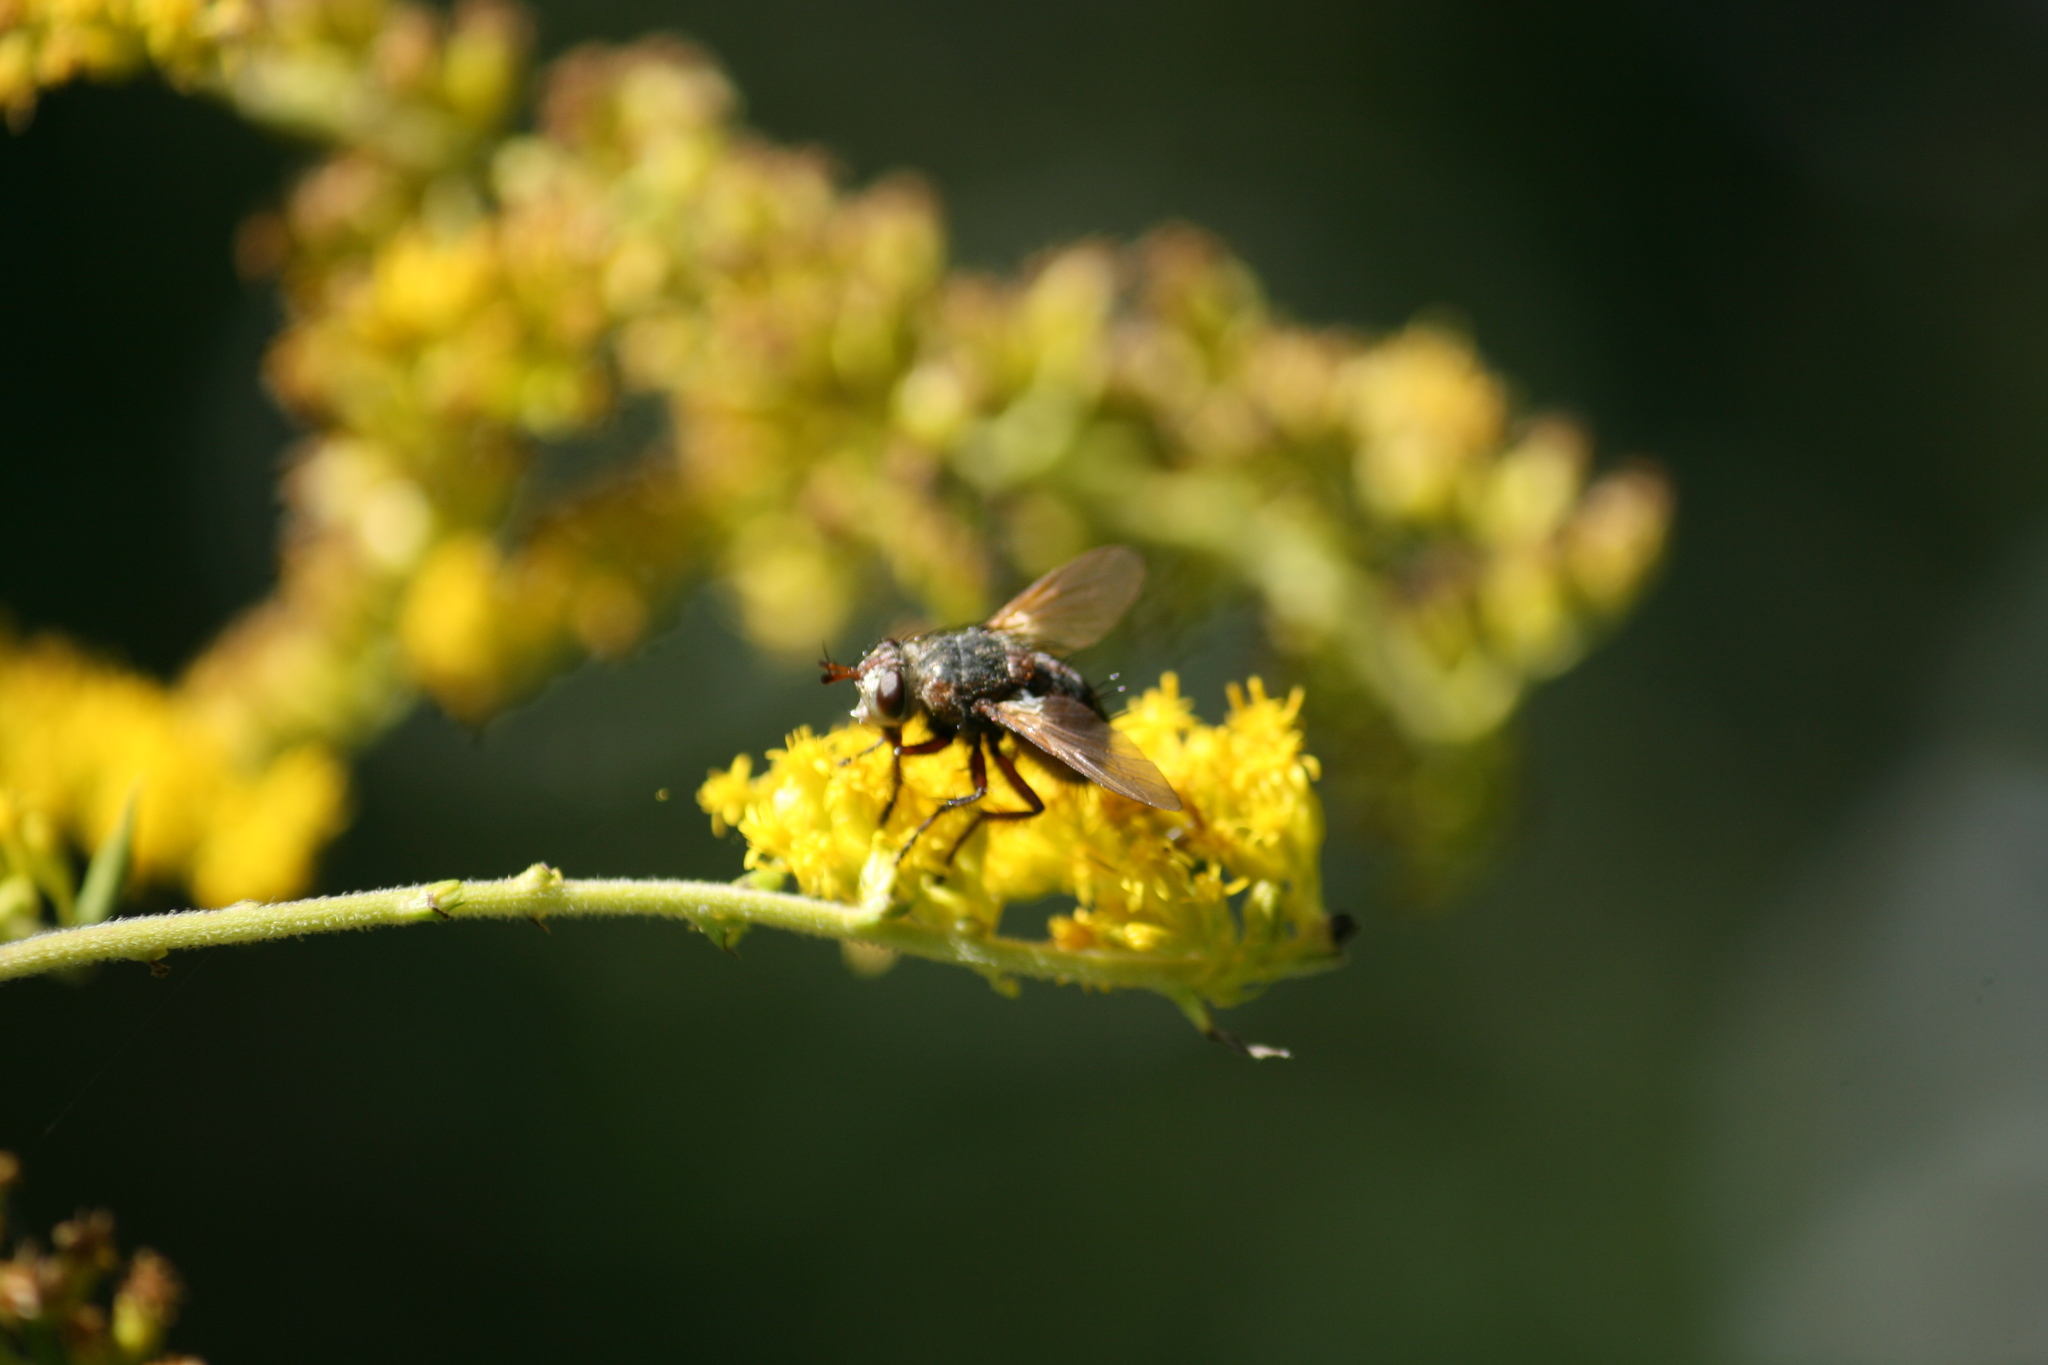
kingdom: Animalia
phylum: Arthropoda
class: Insecta
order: Diptera
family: Tachinidae
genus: Tachina
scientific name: Tachina fera
